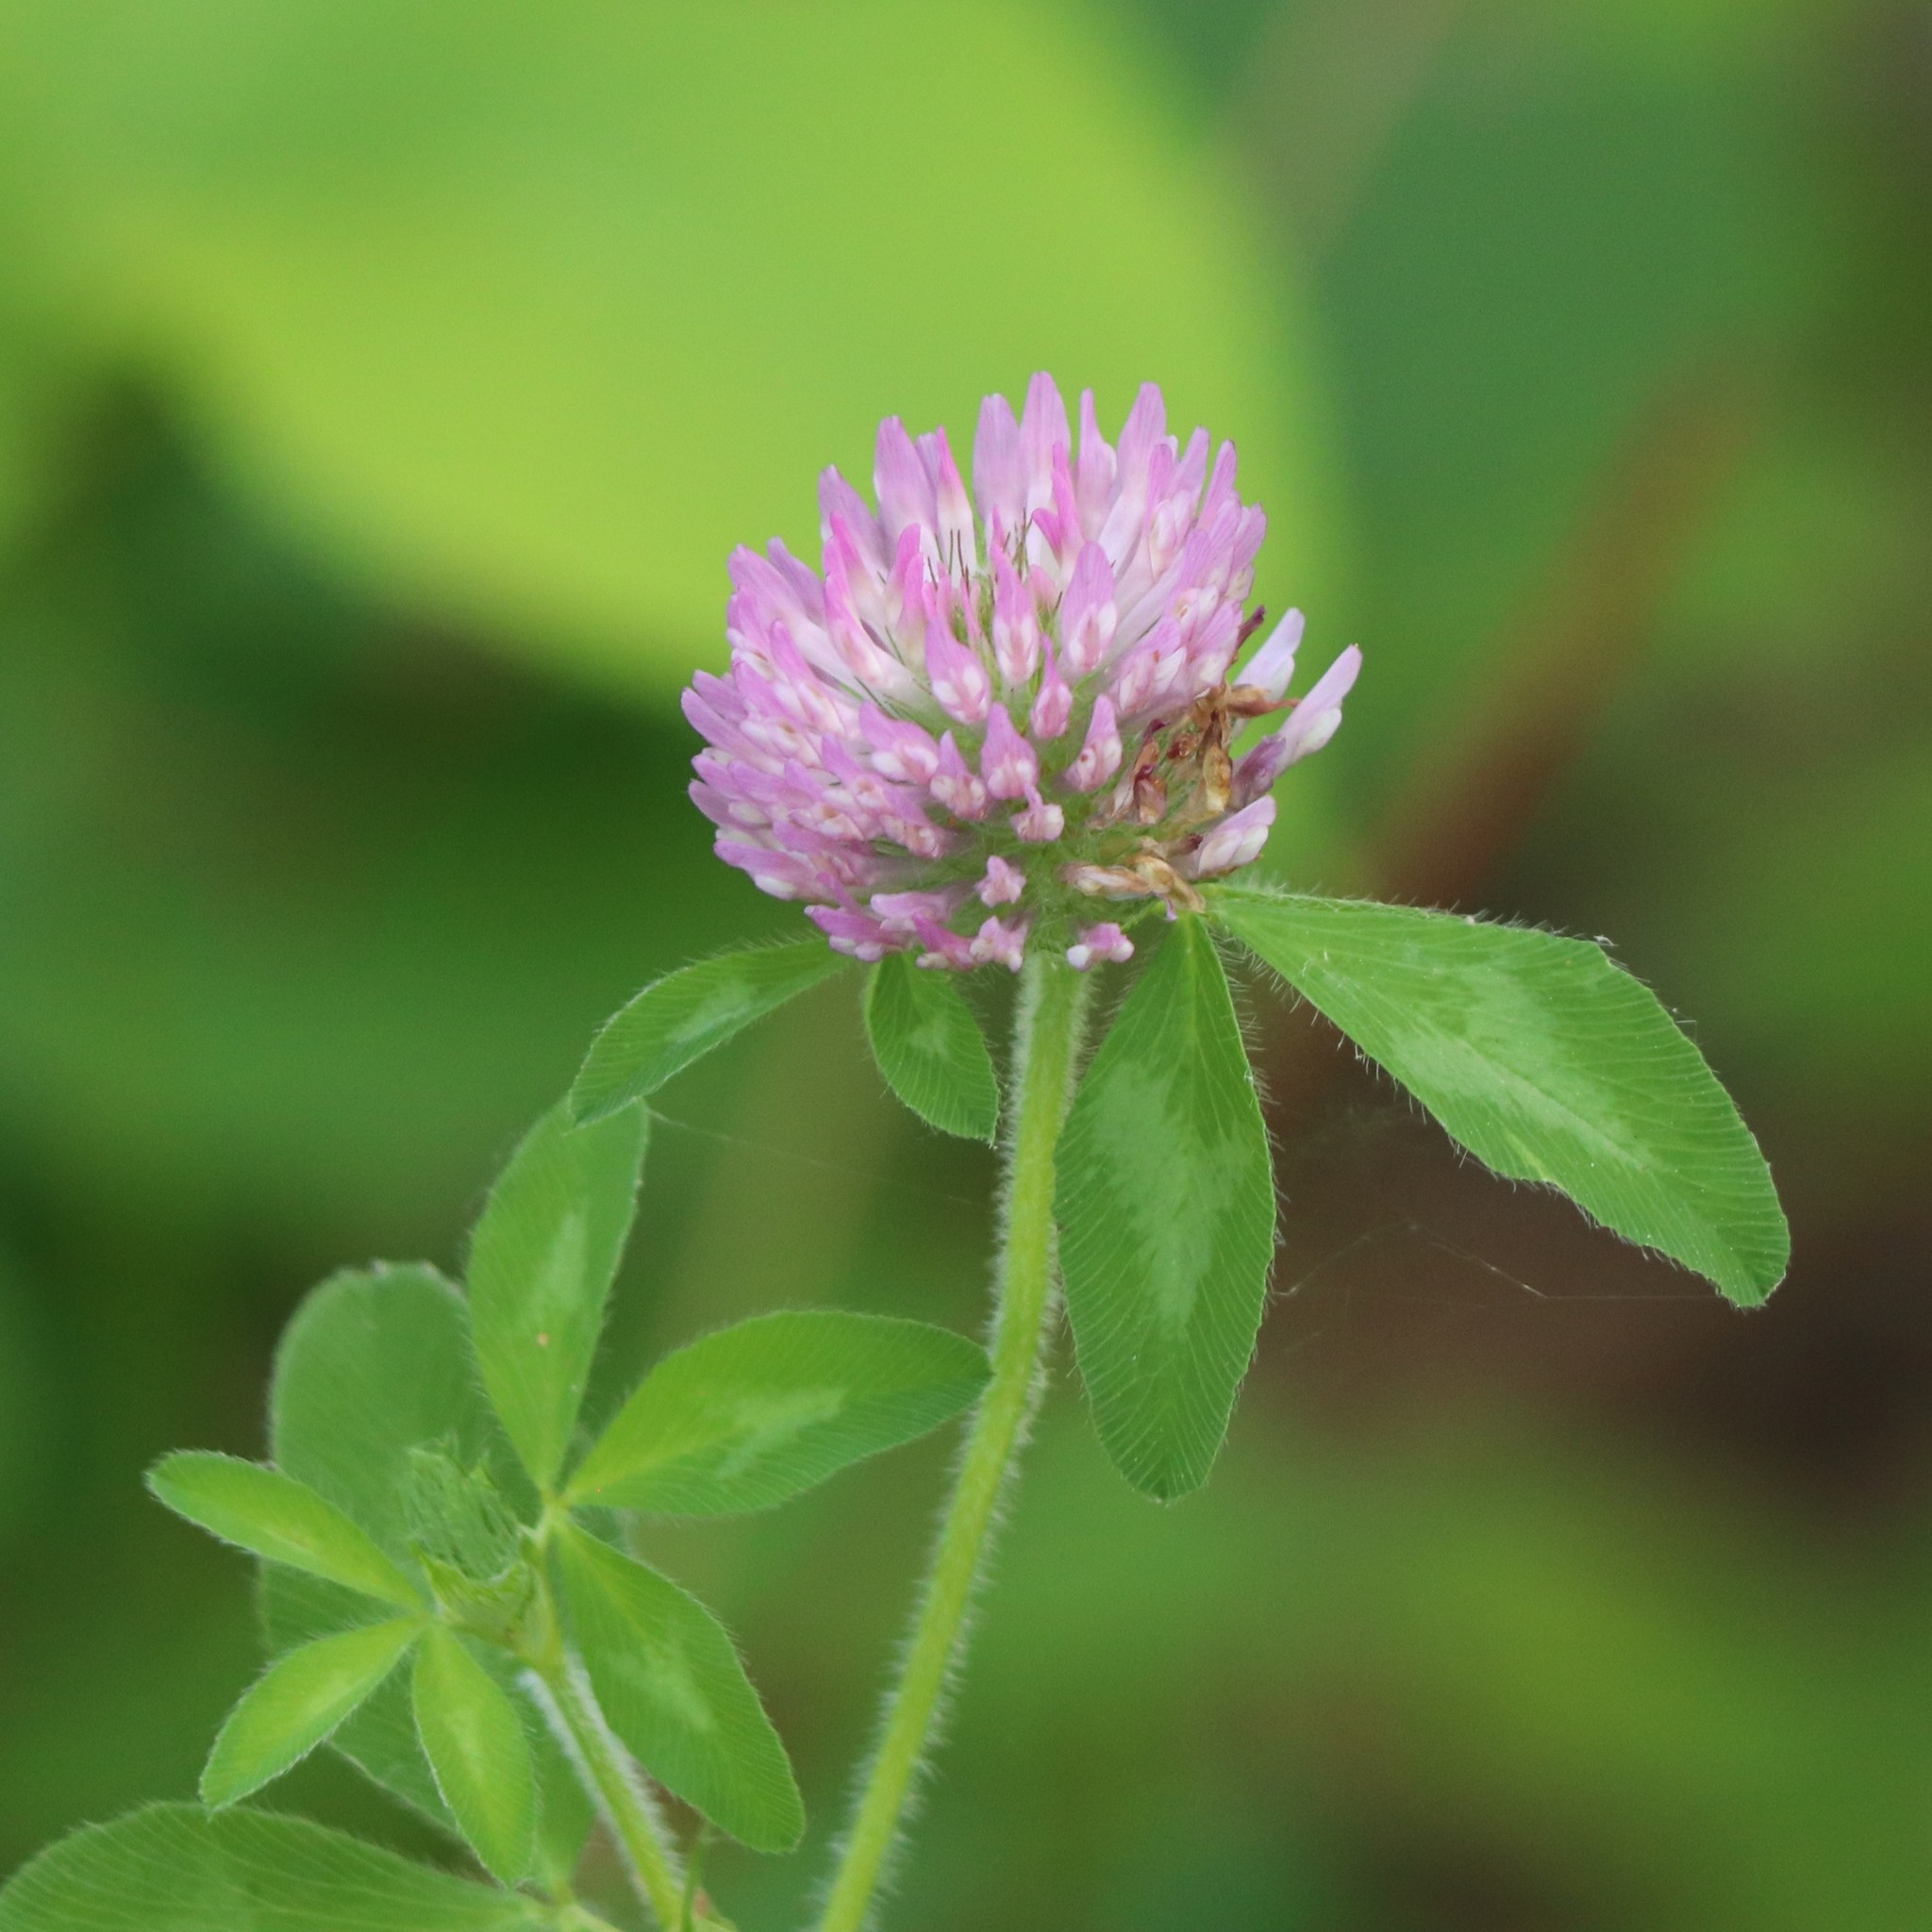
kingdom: Plantae
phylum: Tracheophyta
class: Magnoliopsida
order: Fabales
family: Fabaceae
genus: Trifolium
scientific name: Trifolium pratense
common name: Red clover
